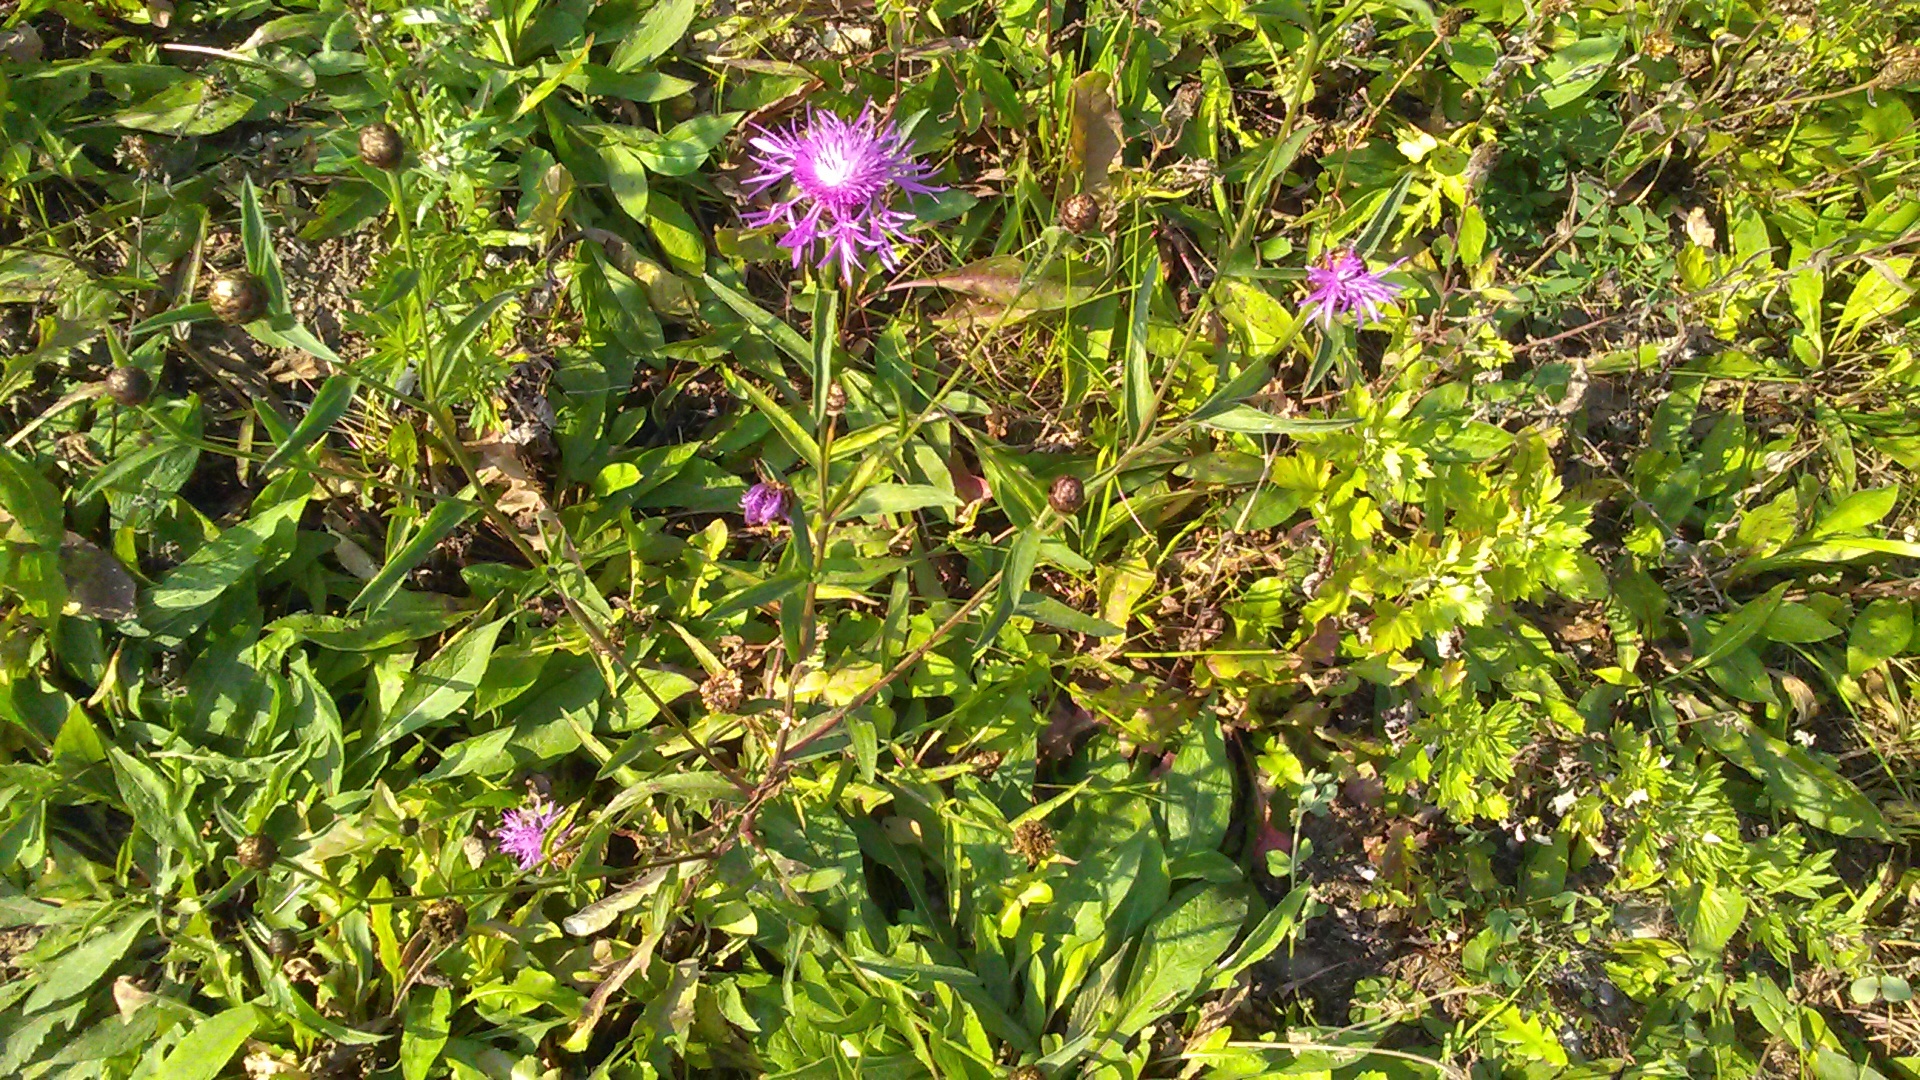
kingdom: Plantae
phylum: Tracheophyta
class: Magnoliopsida
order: Asterales
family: Asteraceae
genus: Centaurea
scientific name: Centaurea jacea
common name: Brown knapweed
